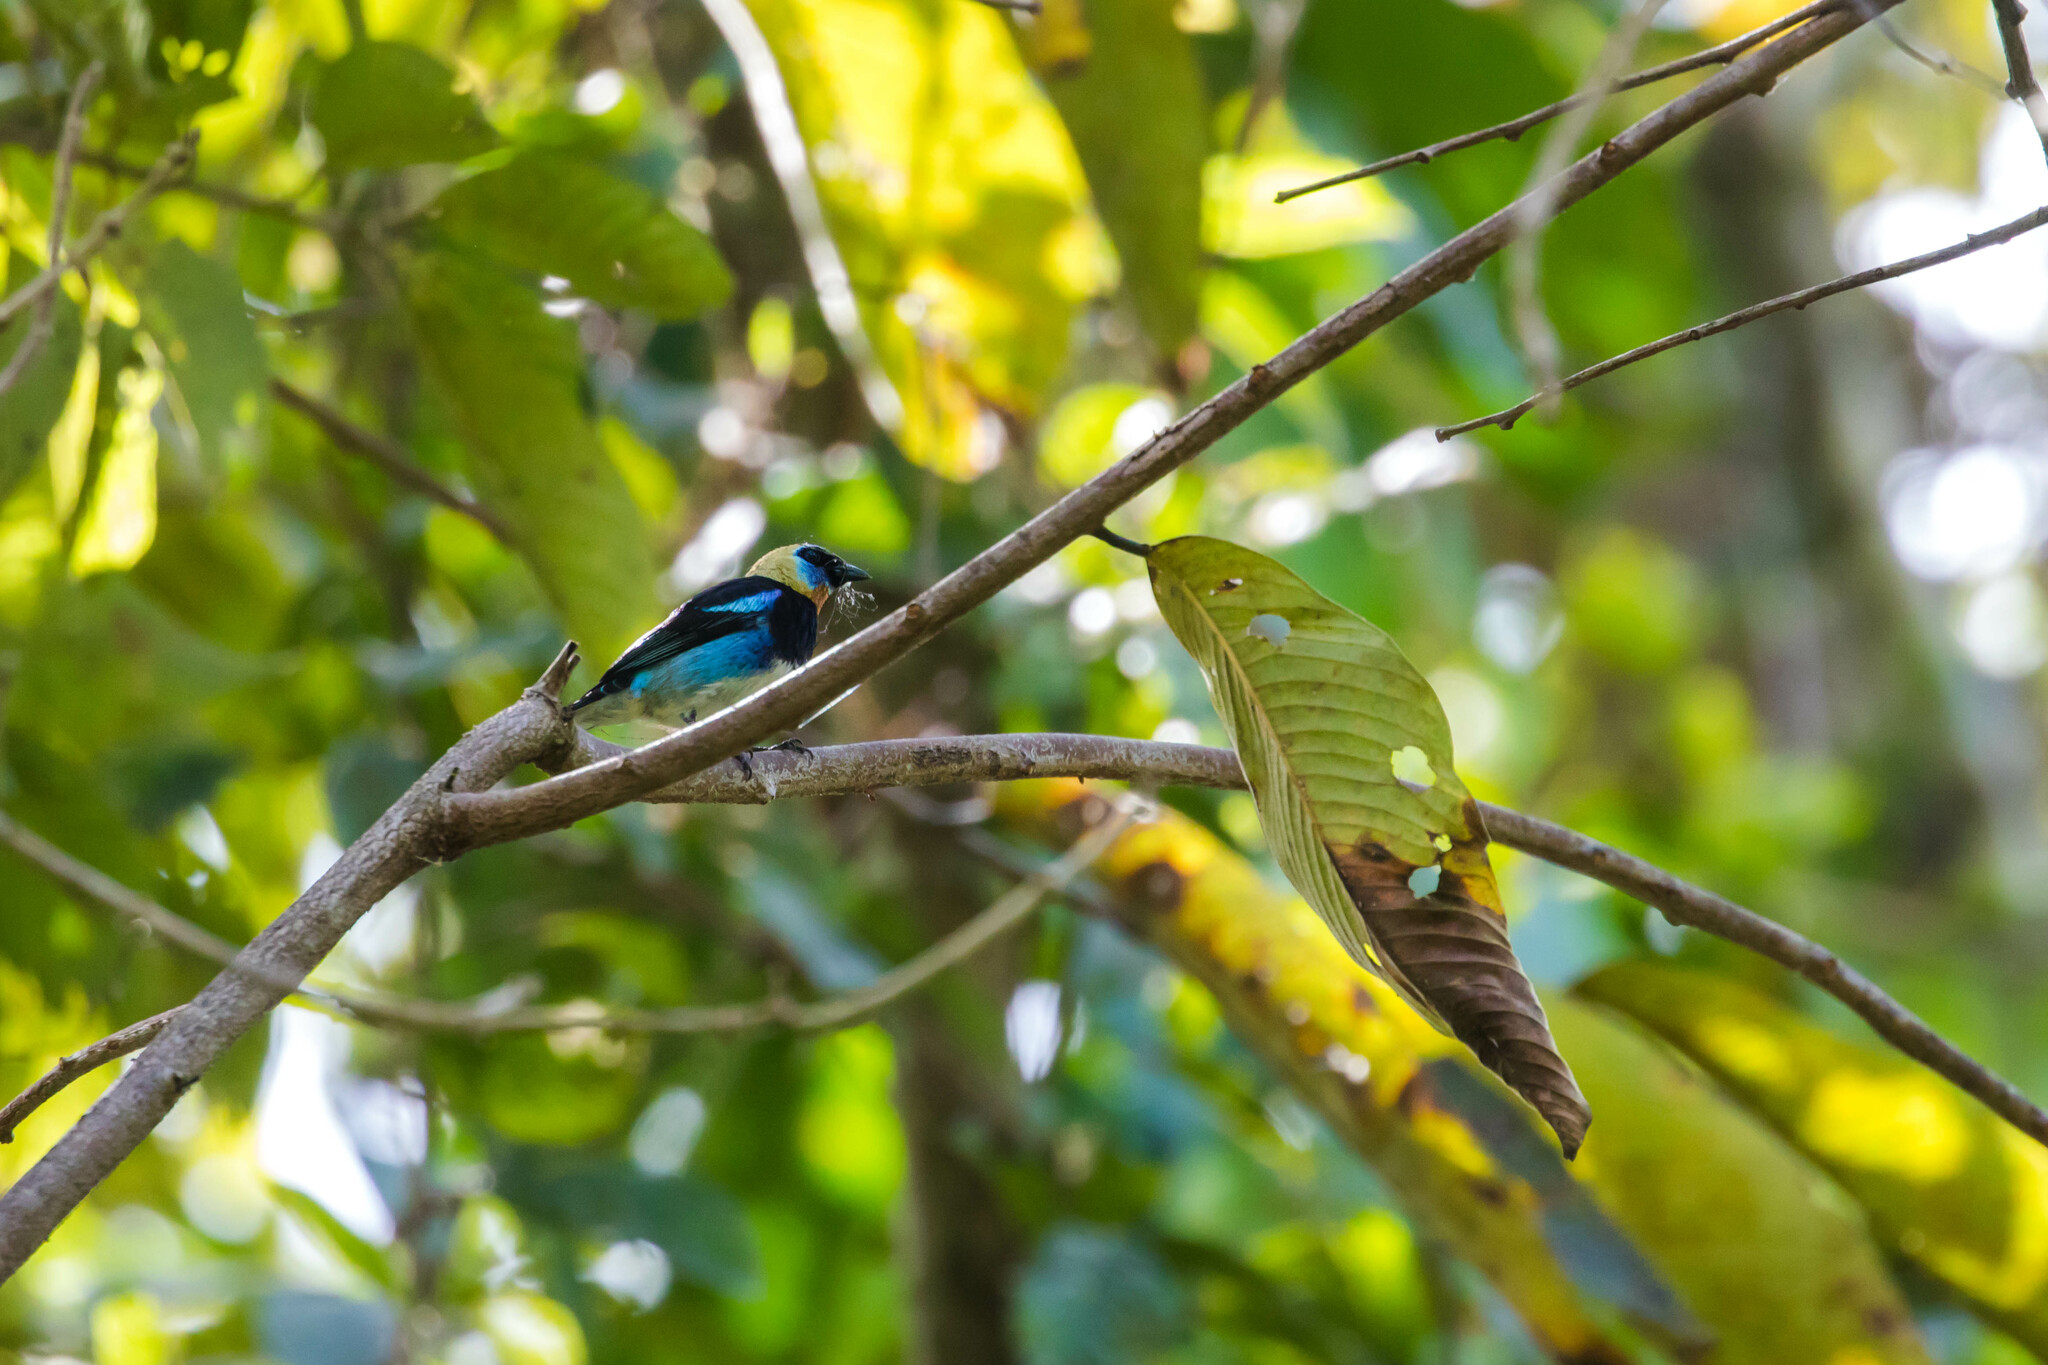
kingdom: Animalia
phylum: Chordata
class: Aves
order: Passeriformes
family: Thraupidae
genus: Stilpnia
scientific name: Stilpnia larvata
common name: Golden-hooded tanager
